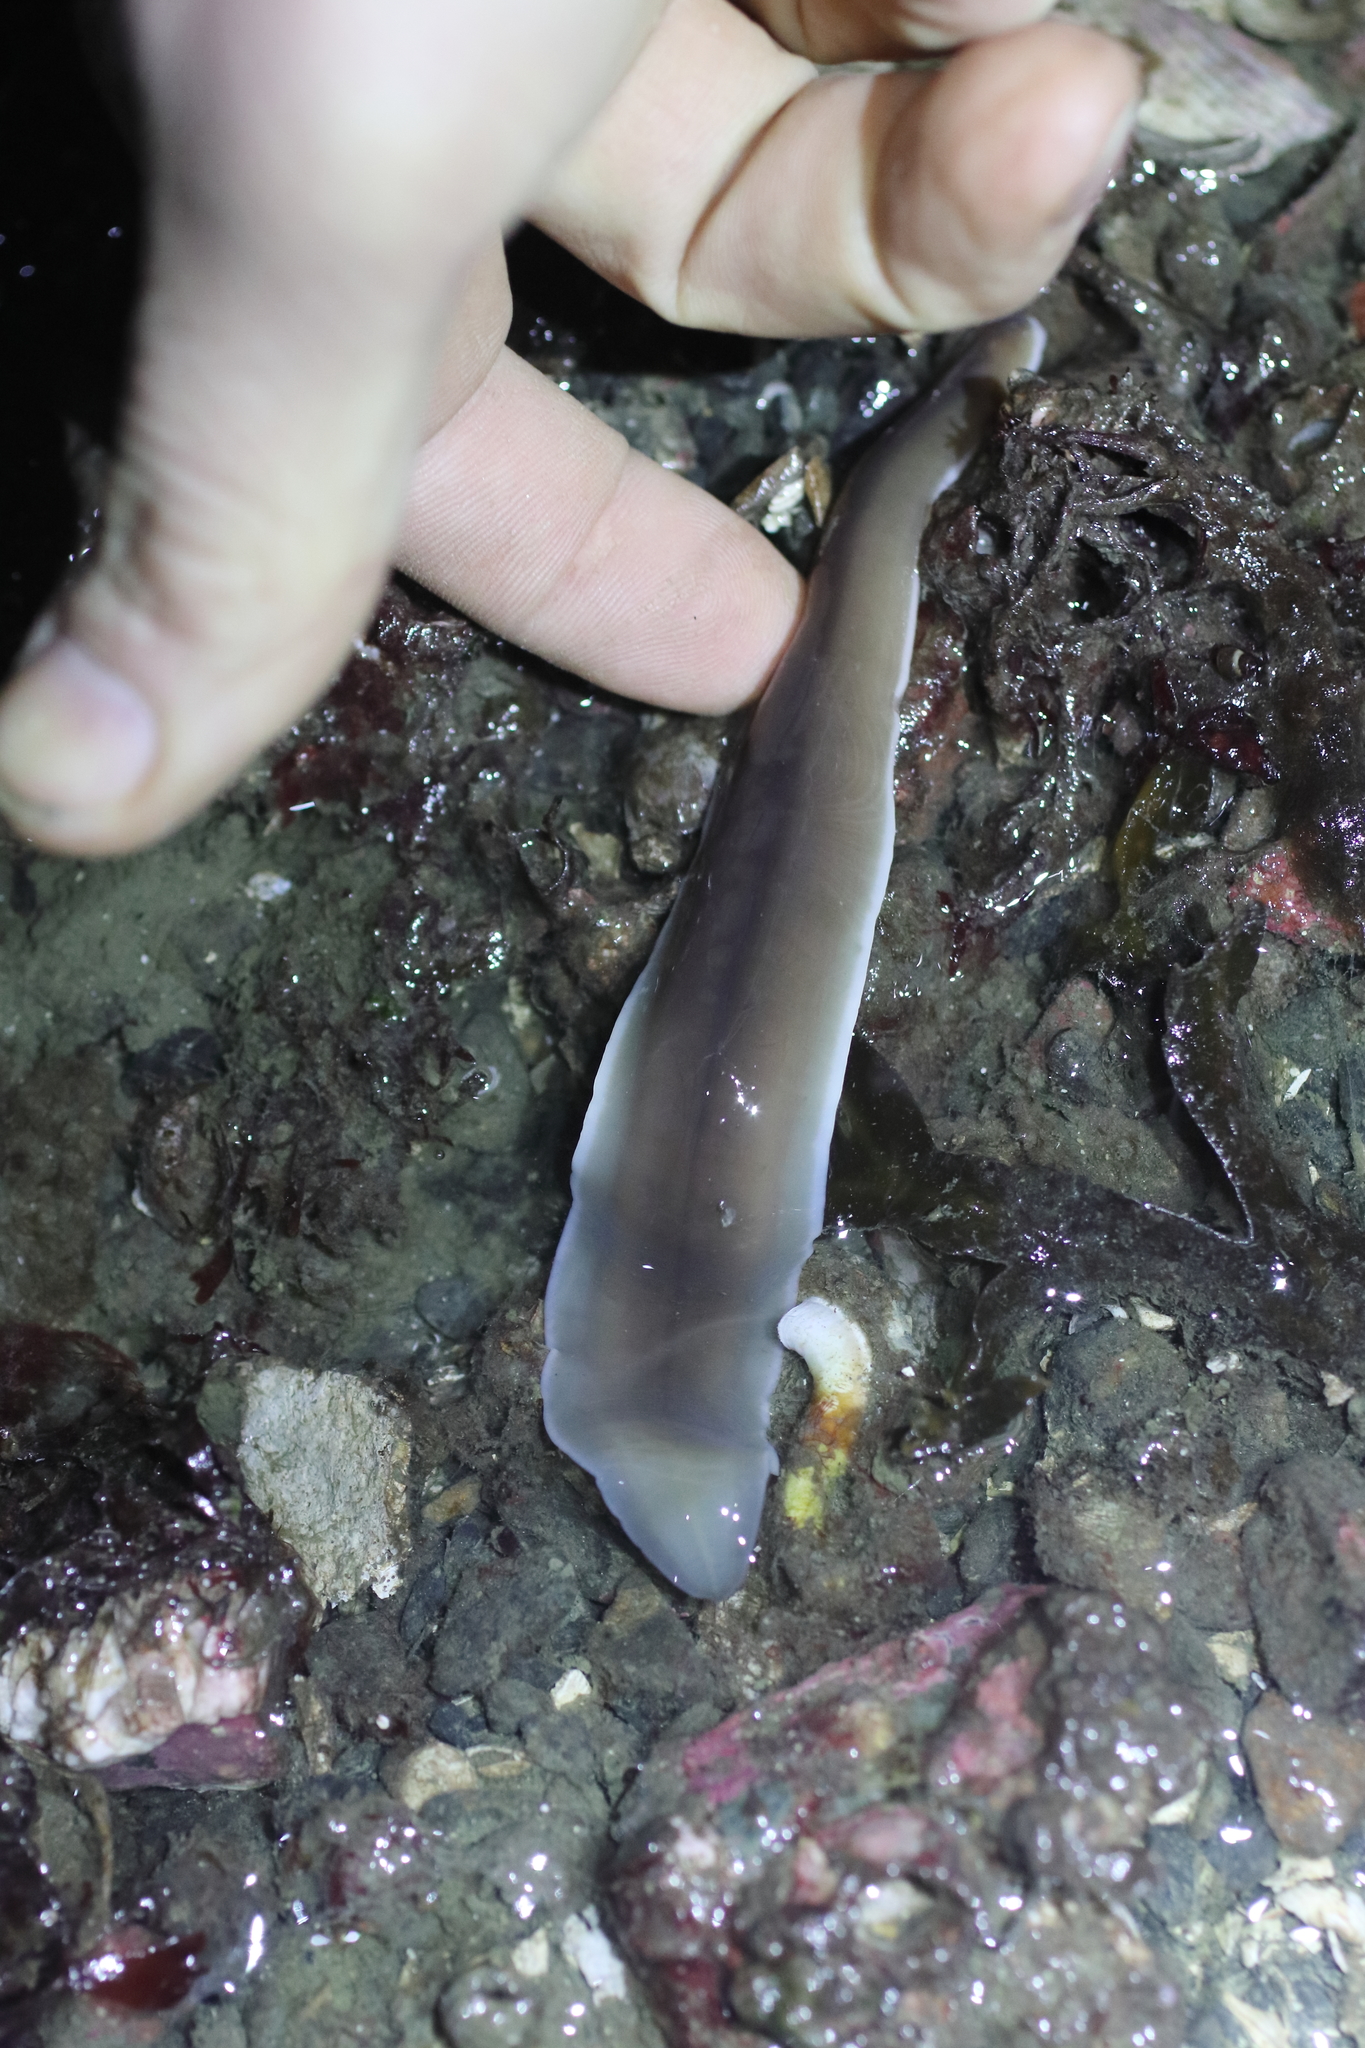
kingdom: Animalia
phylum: Nemertea
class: Pilidiophora
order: Heteronemertea
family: Lineidae
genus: Cerebratulus
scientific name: Cerebratulus marginatus
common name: Black ribbon worm
